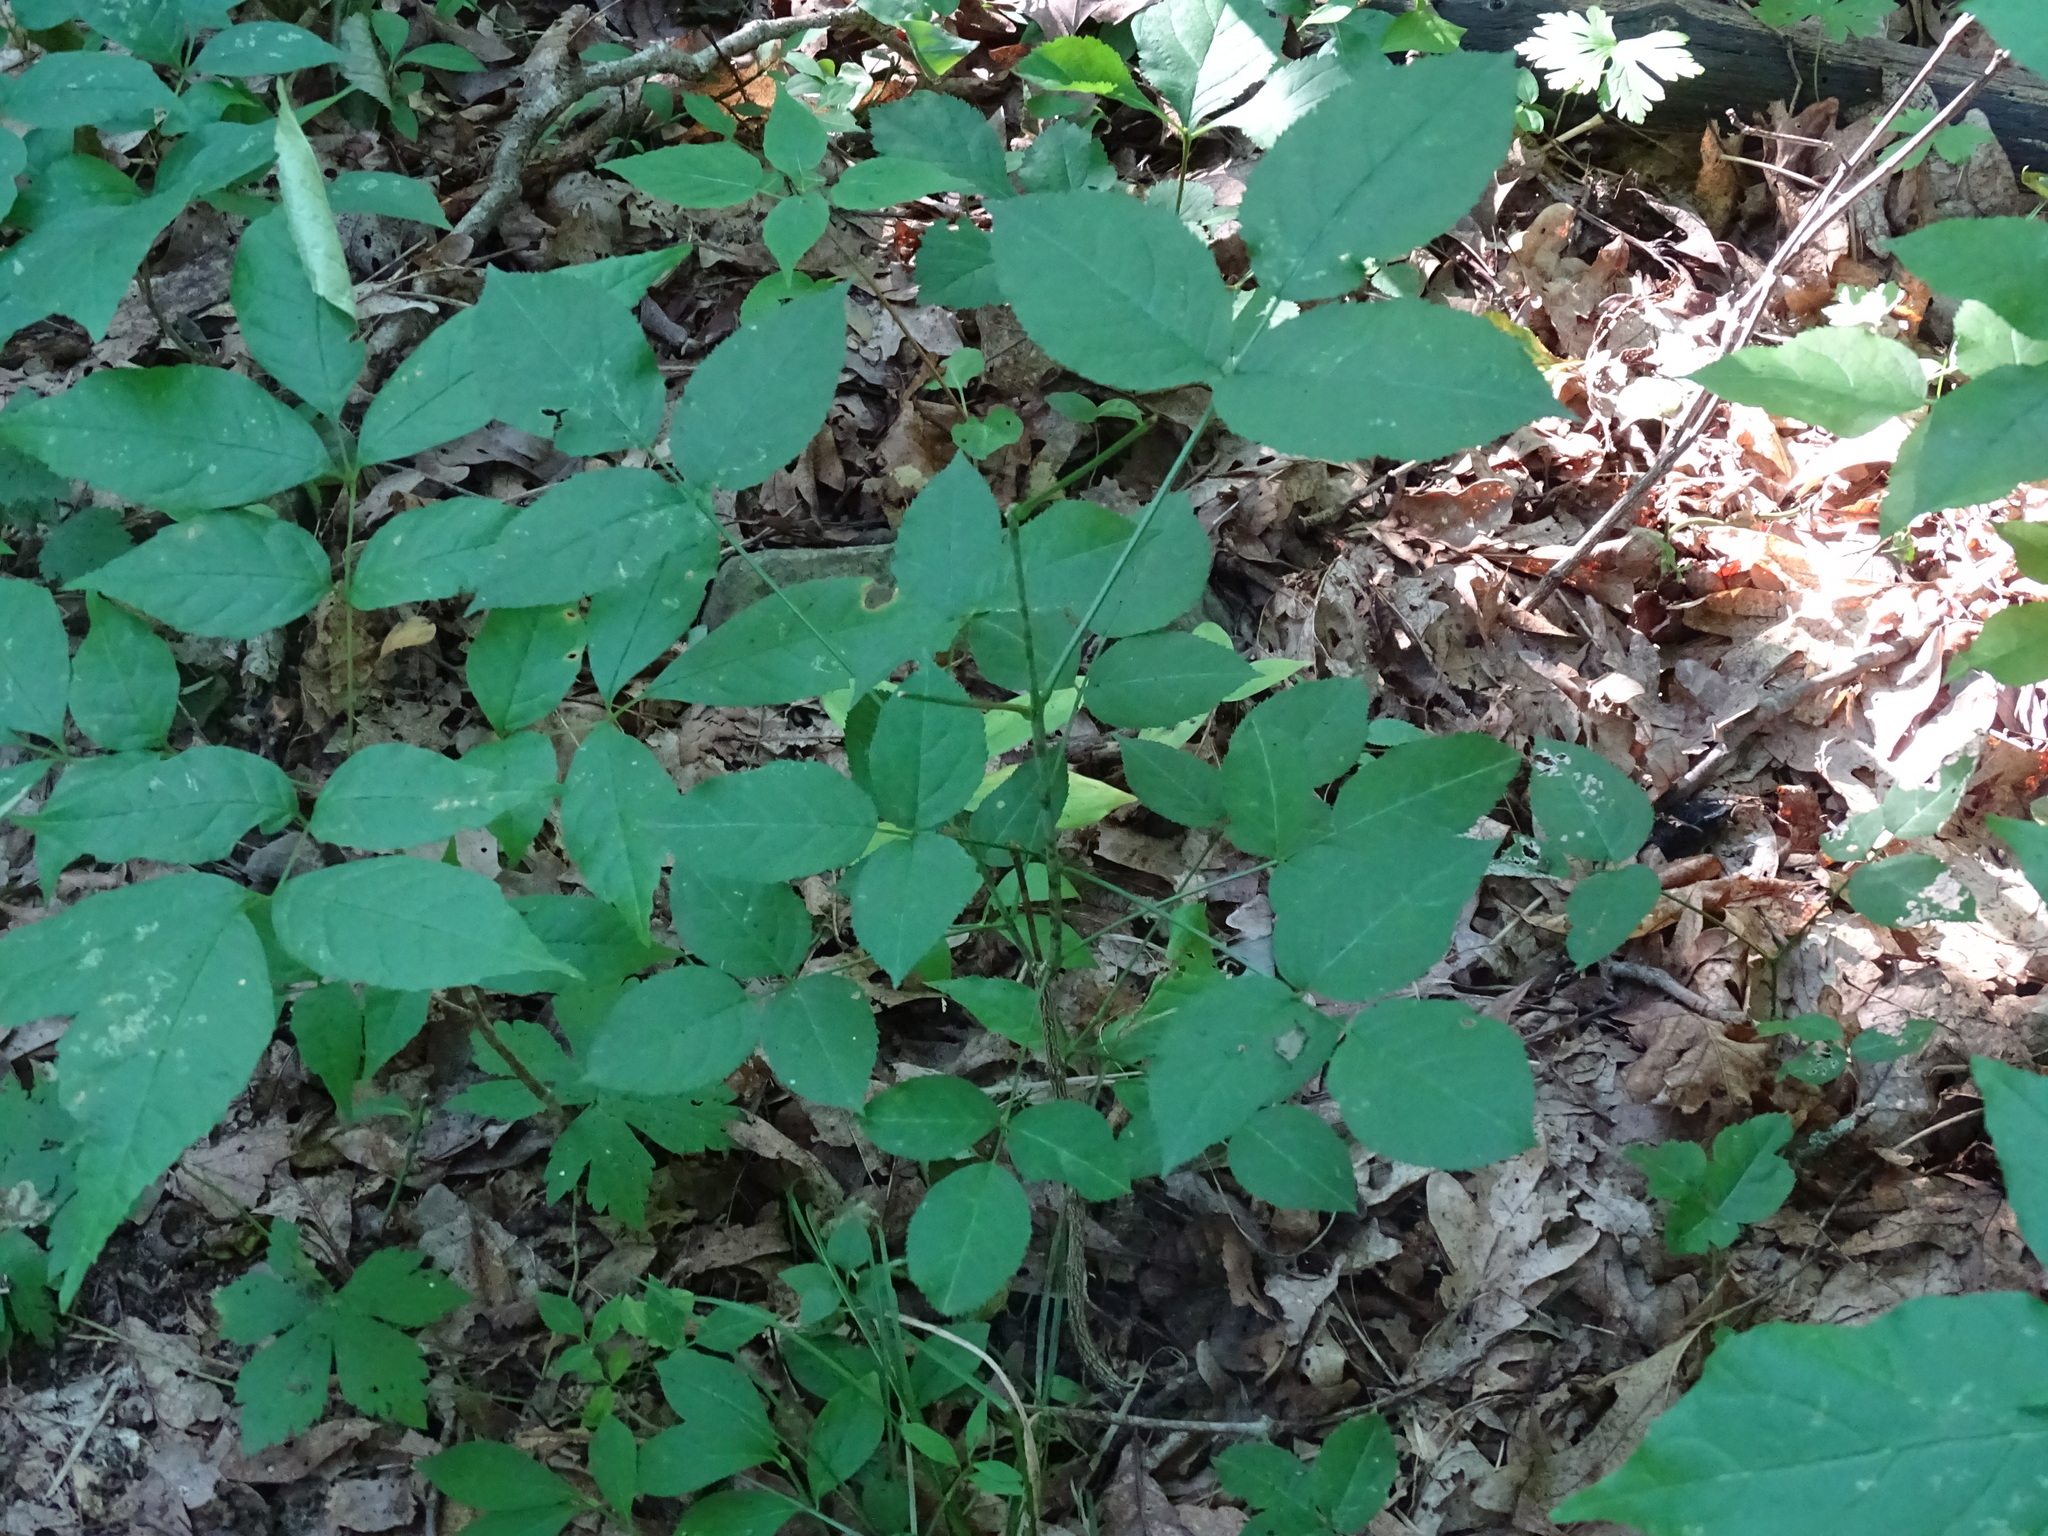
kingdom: Plantae
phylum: Tracheophyta
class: Magnoliopsida
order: Crossosomatales
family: Staphyleaceae
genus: Staphylea
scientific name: Staphylea trifolia
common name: American bladdernut
